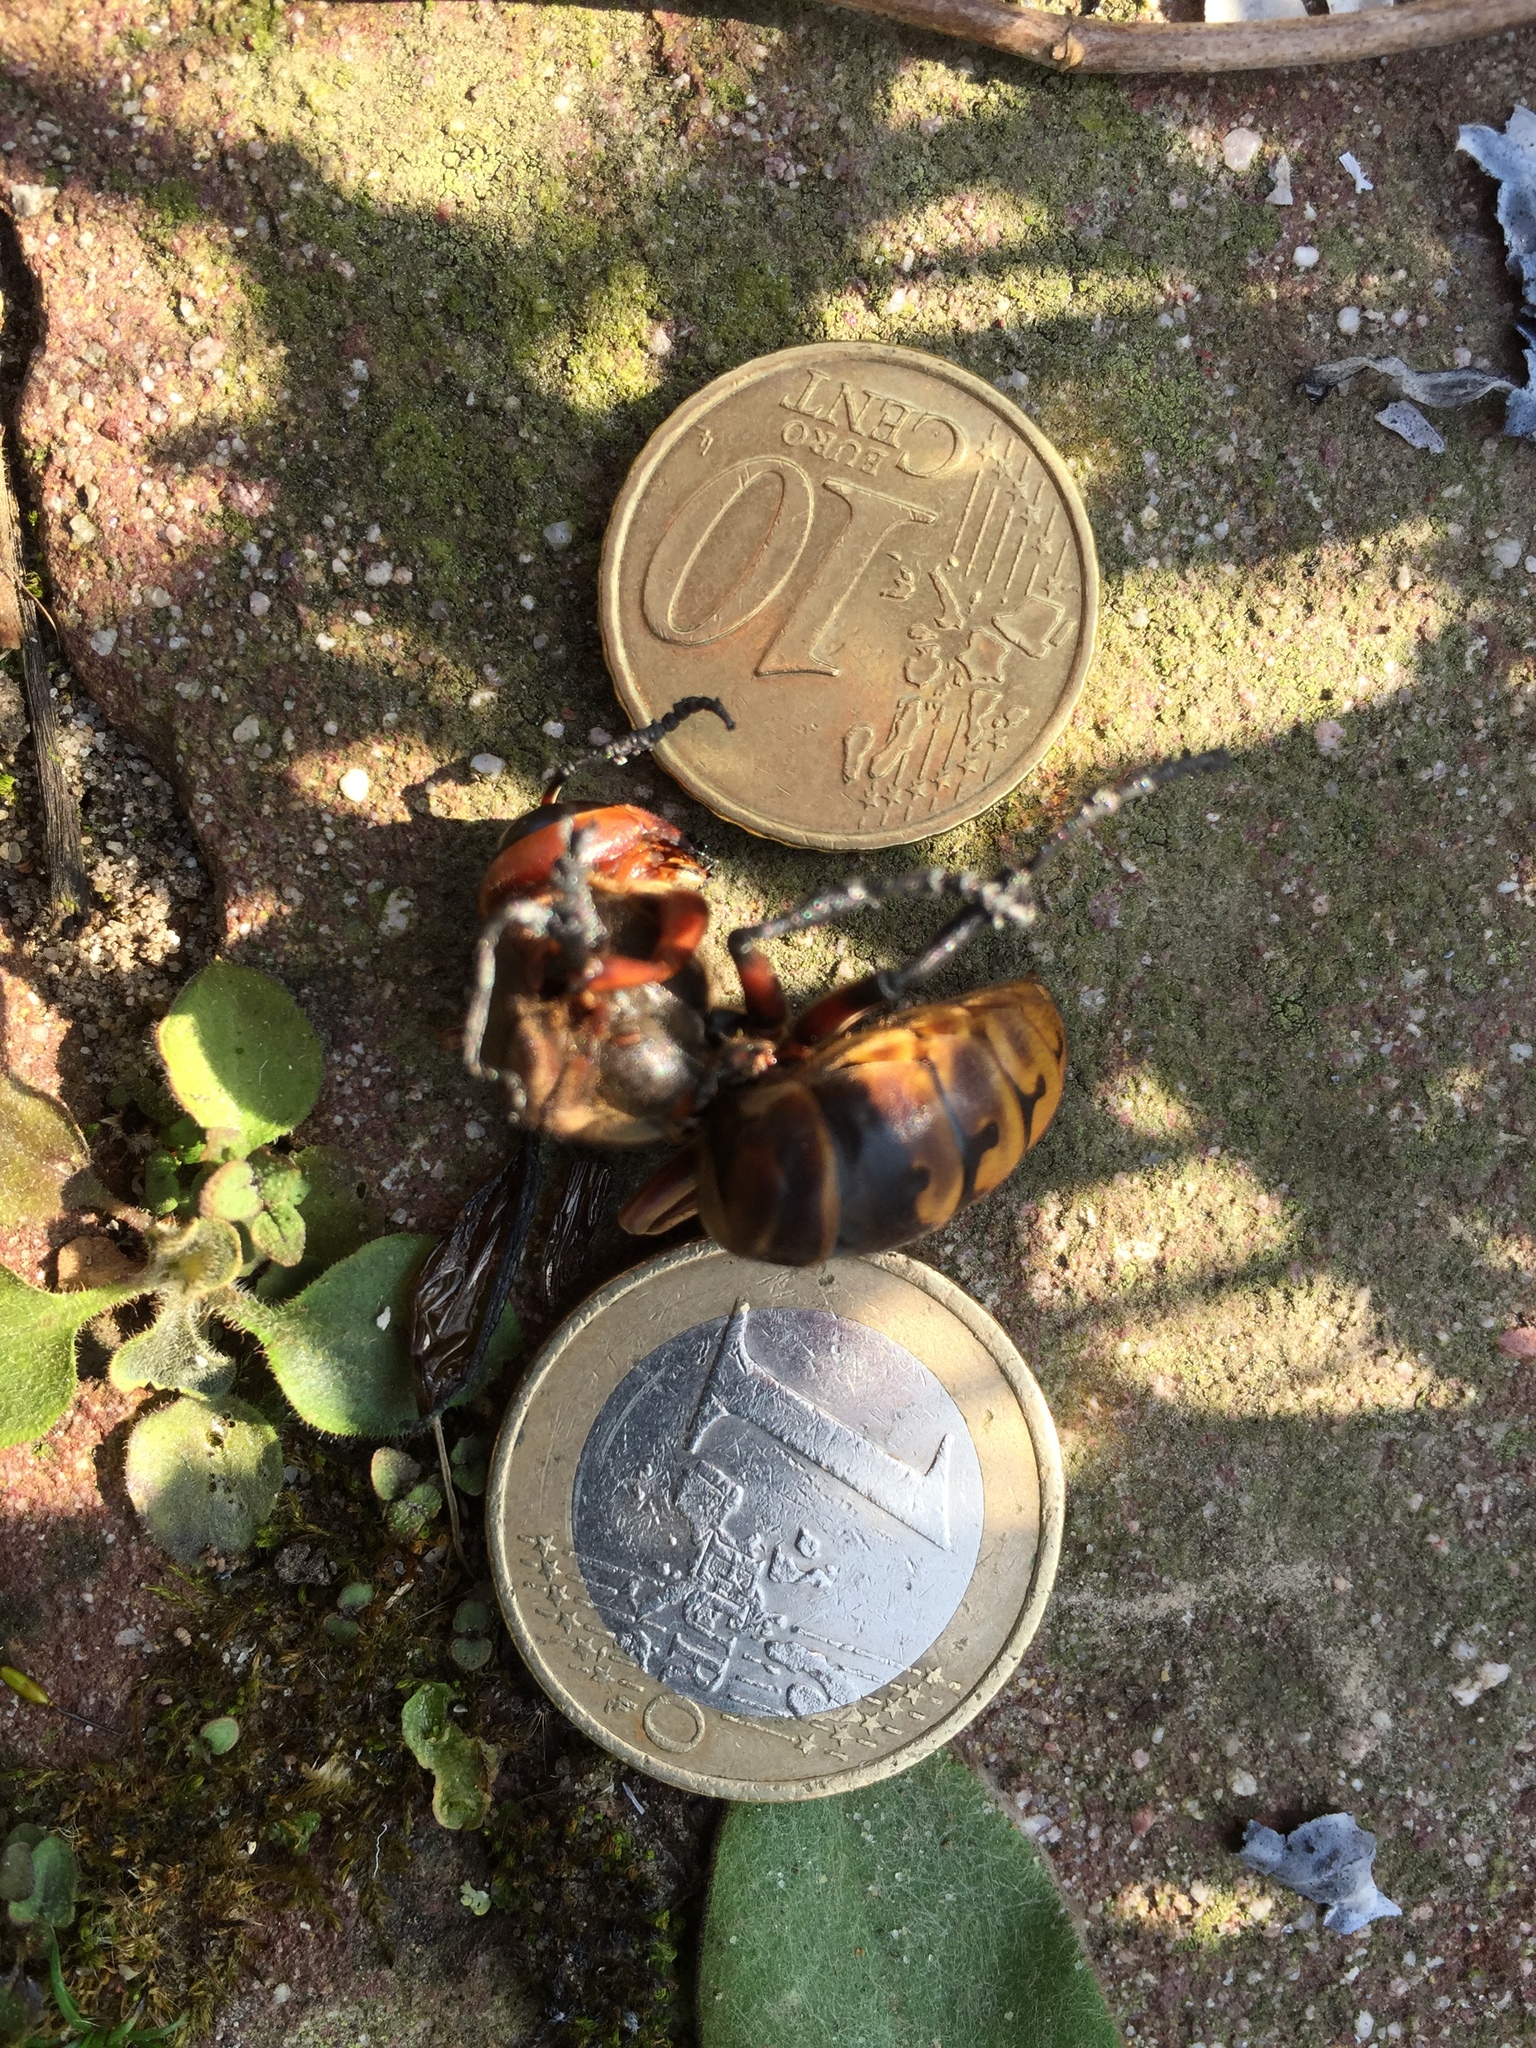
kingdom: Animalia
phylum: Arthropoda
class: Insecta
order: Hymenoptera
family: Vespidae
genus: Vespa
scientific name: Vespa crabro
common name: Hornet
